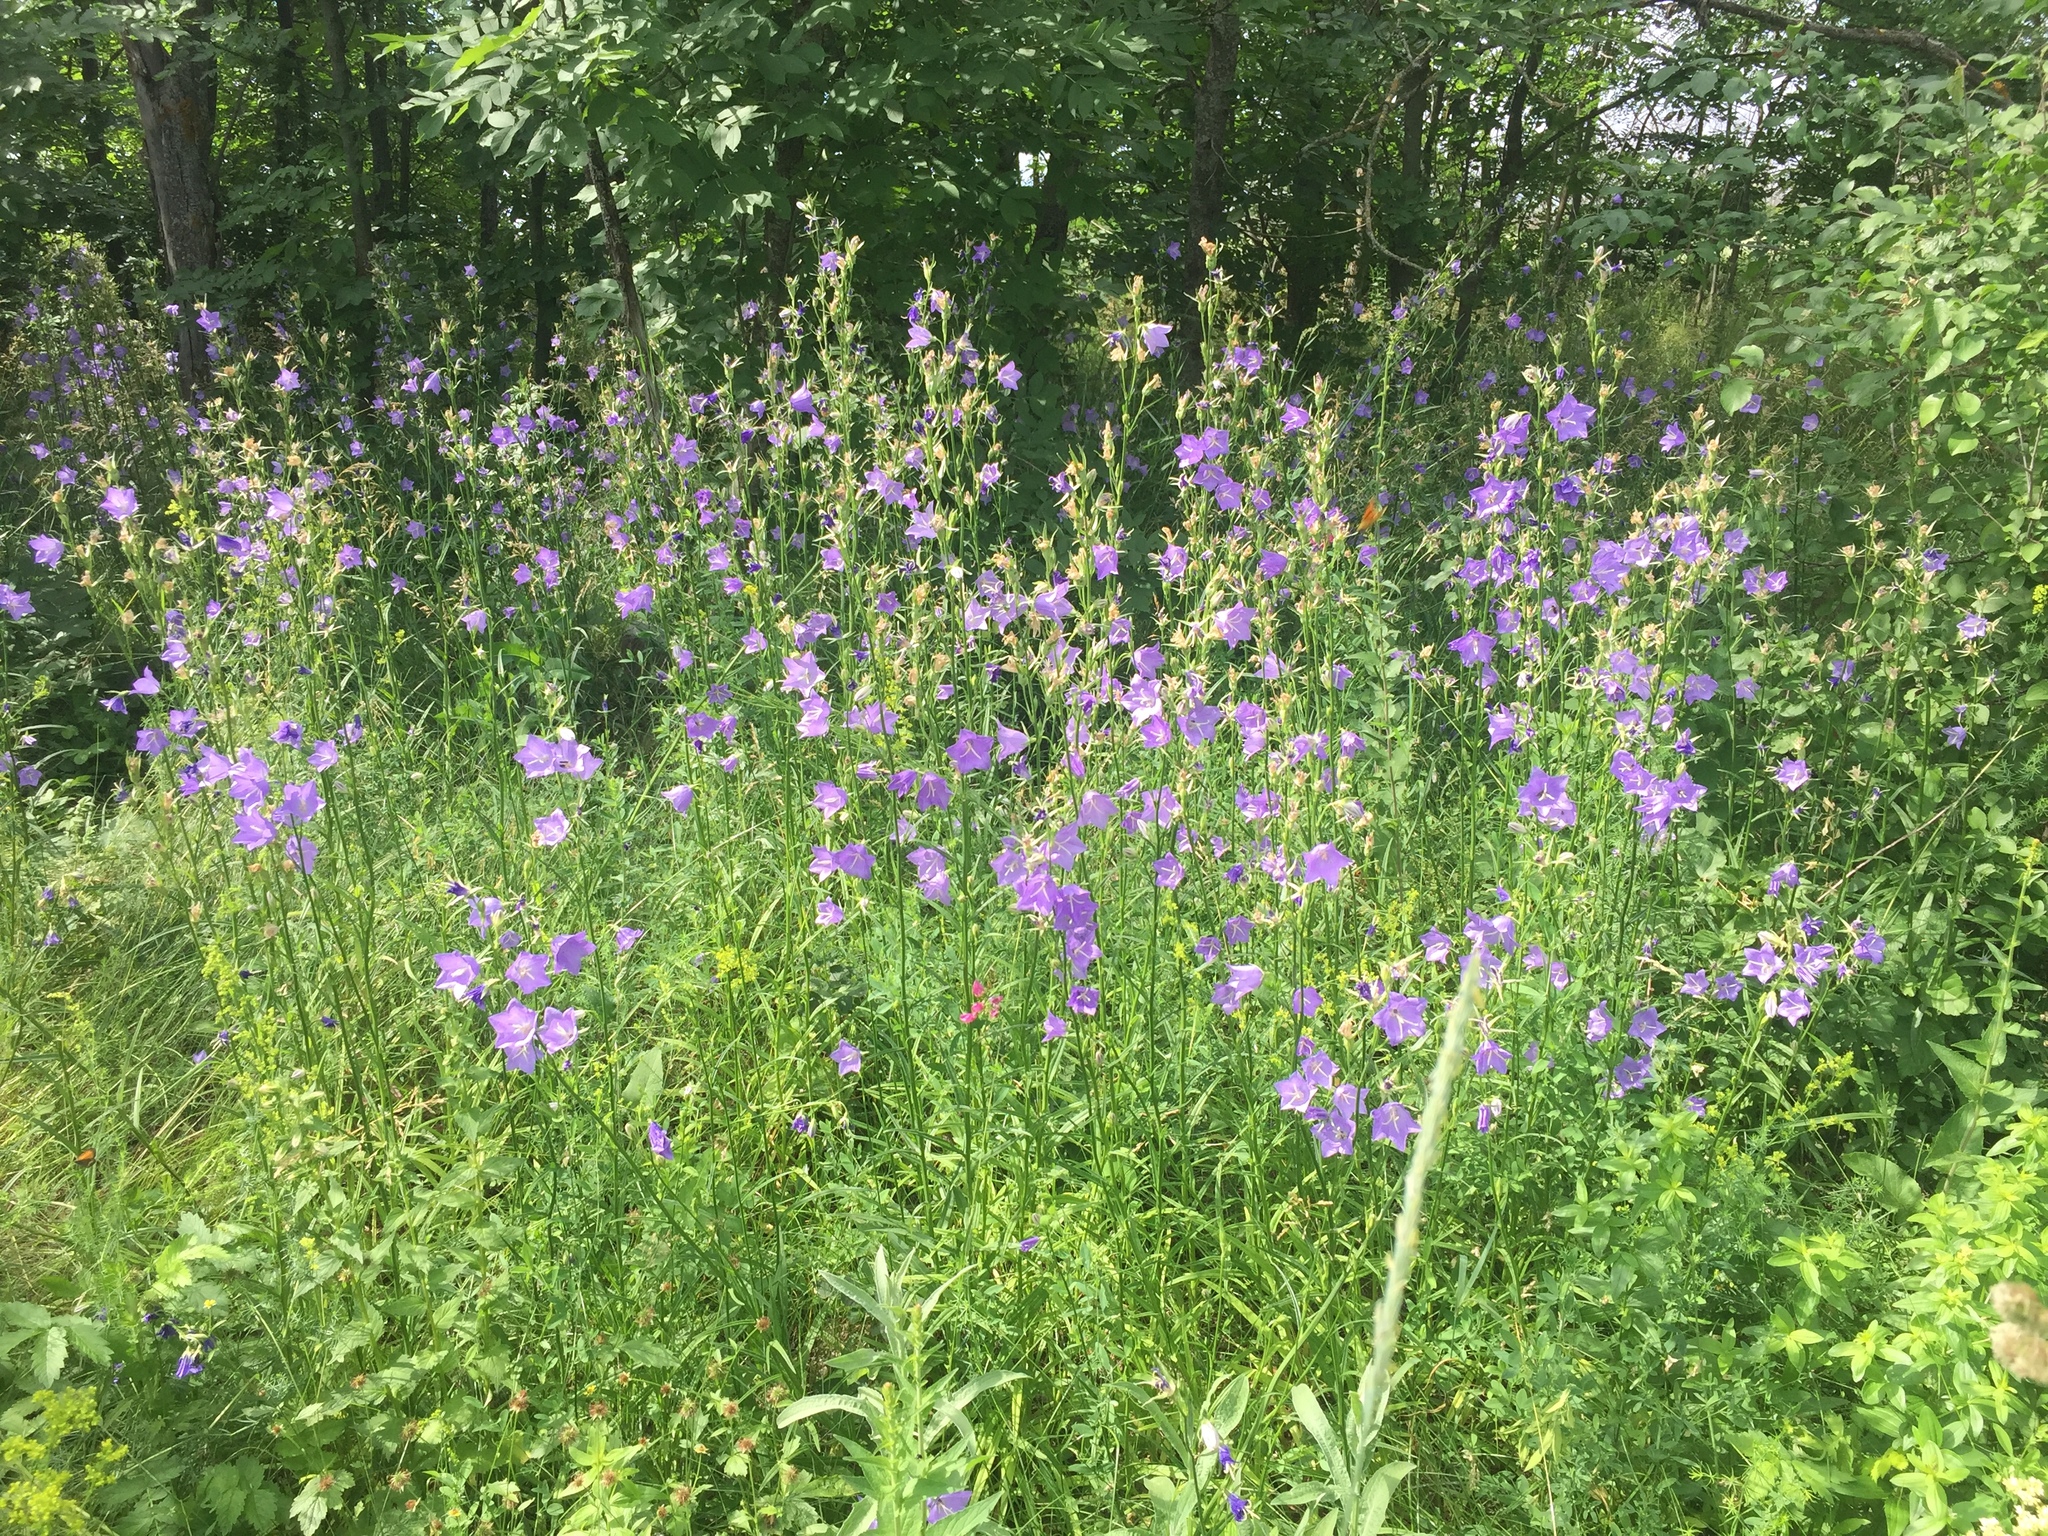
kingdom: Plantae
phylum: Tracheophyta
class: Magnoliopsida
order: Asterales
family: Campanulaceae
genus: Campanula
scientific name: Campanula persicifolia
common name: Peach-leaved bellflower
